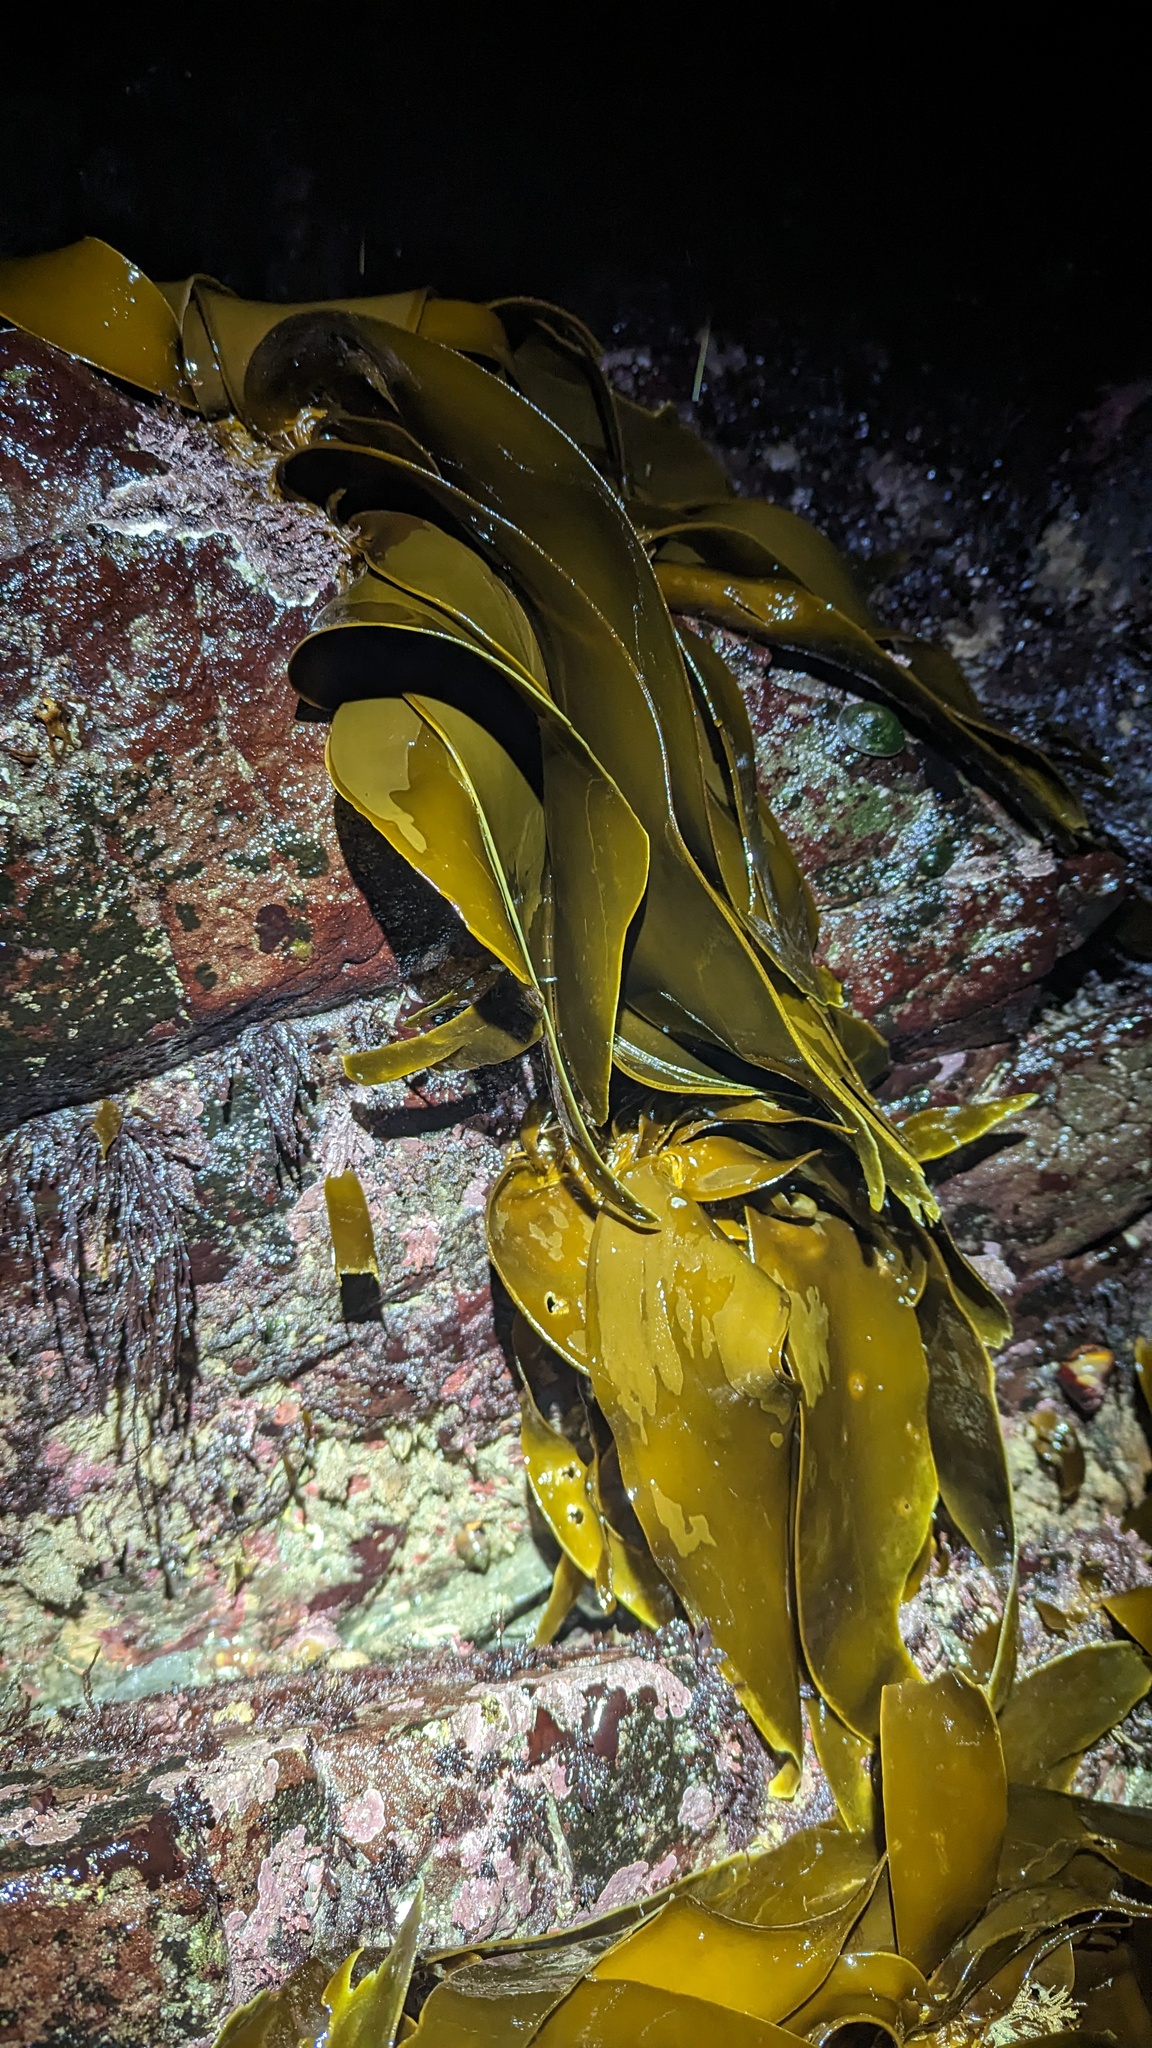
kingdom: Chromista
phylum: Ochrophyta
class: Phaeophyceae
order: Laminariales
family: Laminariaceae
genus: Hedophyllum
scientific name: Hedophyllum sessile
